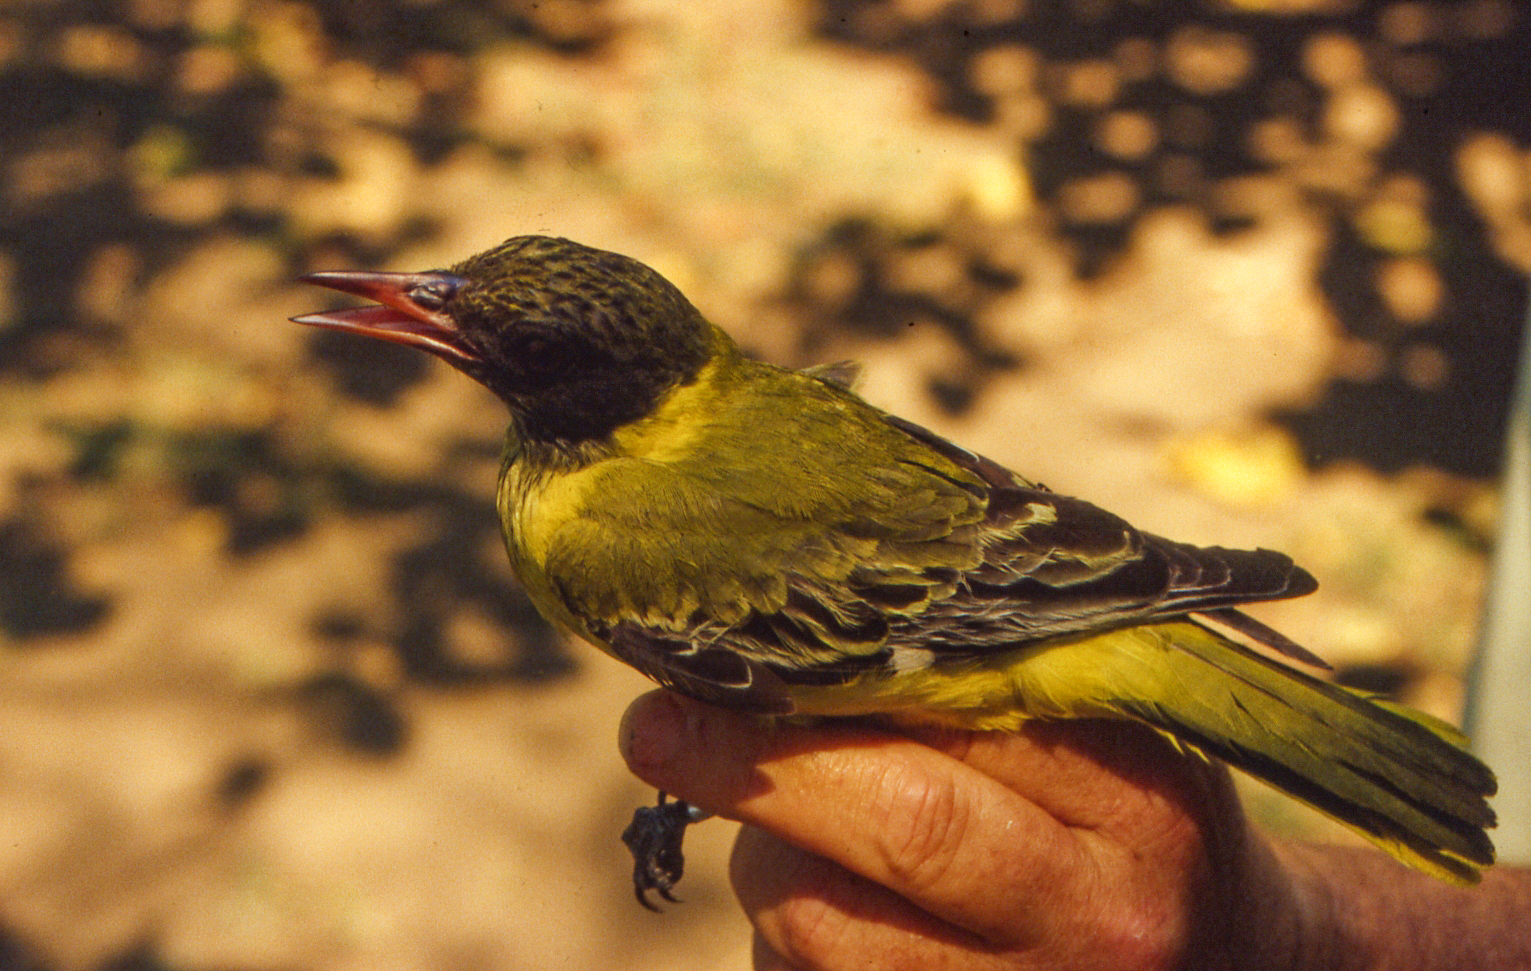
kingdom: Animalia
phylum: Chordata
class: Aves
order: Passeriformes
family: Oriolidae
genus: Oriolus
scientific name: Oriolus larvatus
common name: Black-headed oriole
